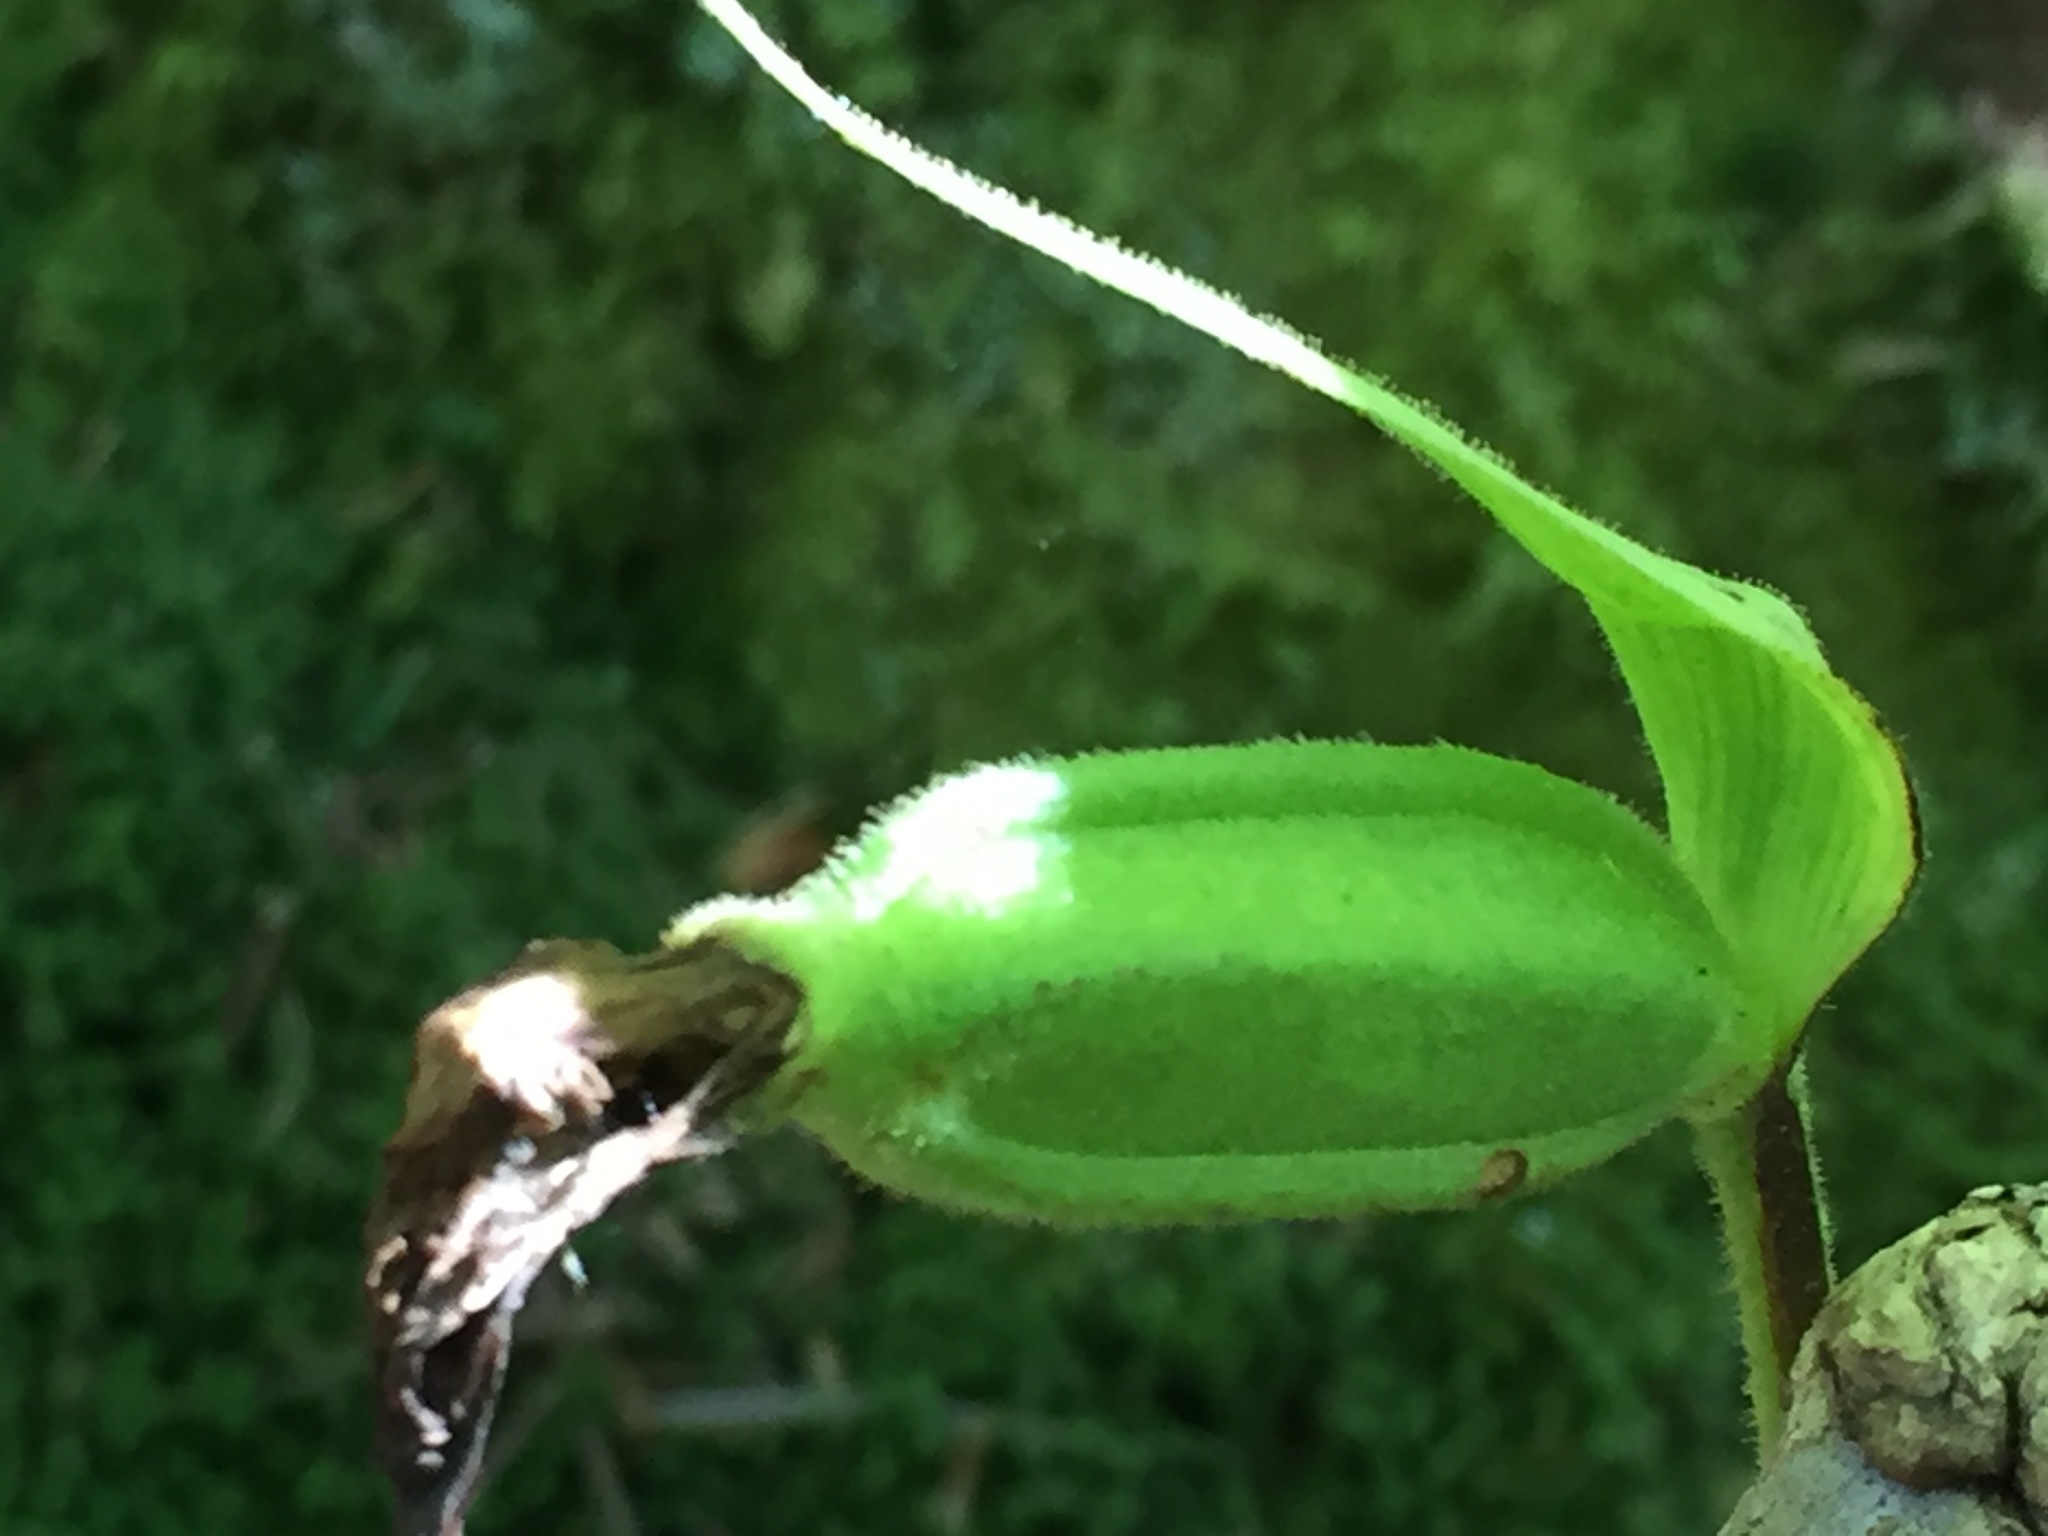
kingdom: Plantae
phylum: Tracheophyta
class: Liliopsida
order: Asparagales
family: Orchidaceae
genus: Cypripedium
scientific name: Cypripedium acaule
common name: Pink lady's-slipper
